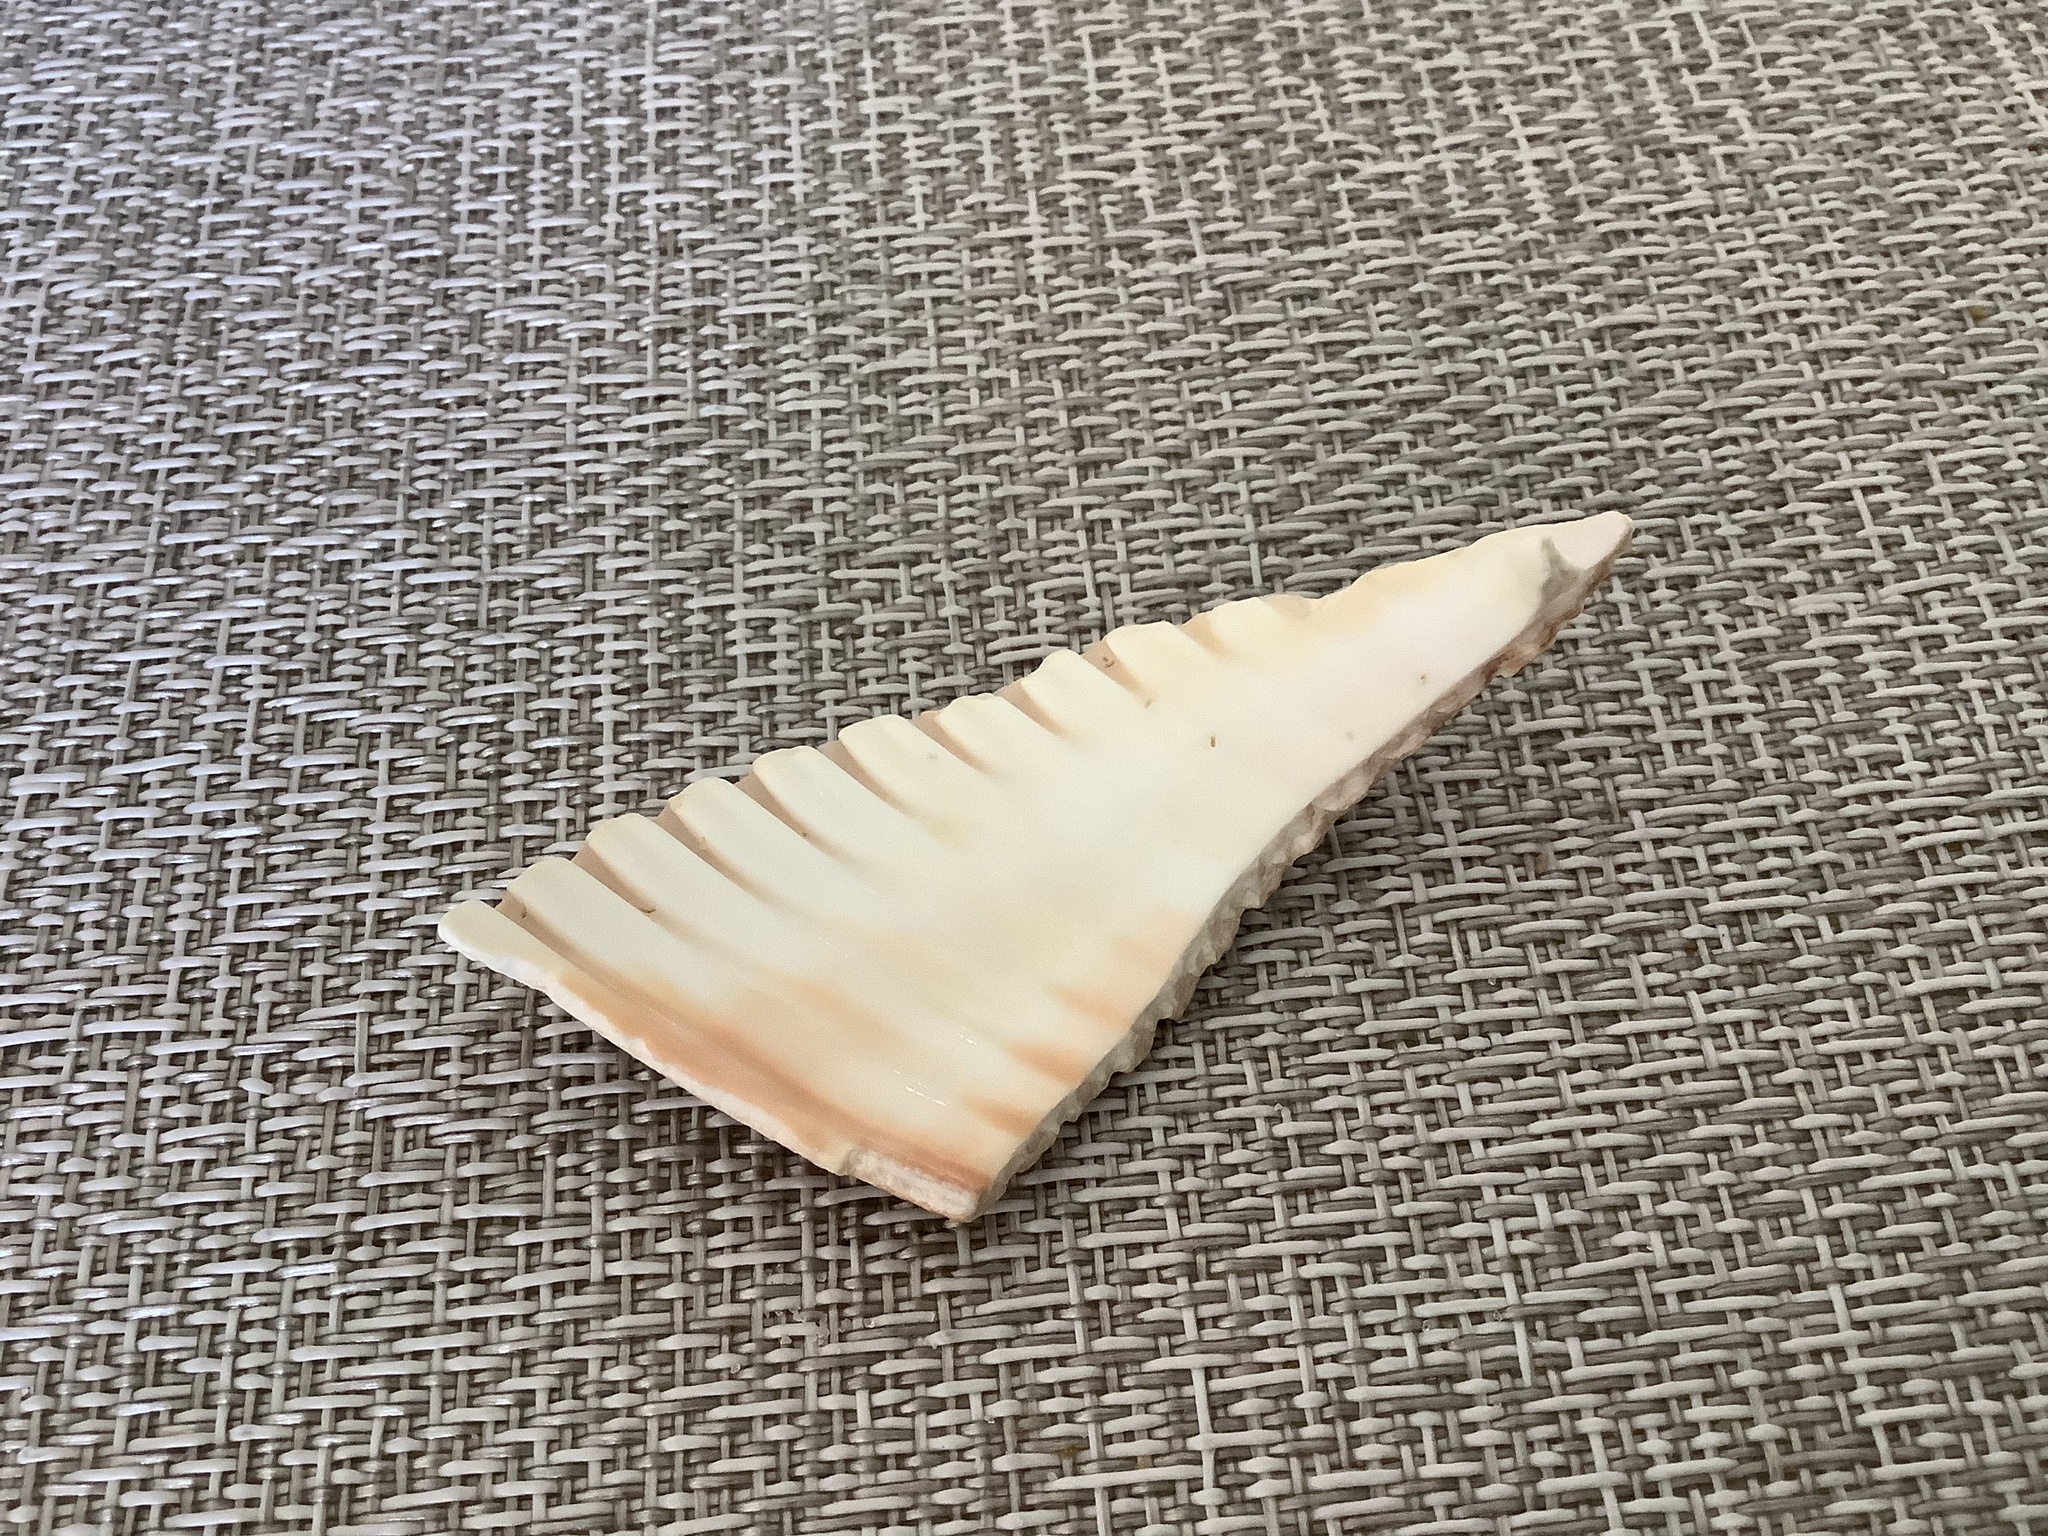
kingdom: Animalia
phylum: Mollusca
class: Bivalvia
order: Cardiida
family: Cardiidae
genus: Dinocardium
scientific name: Dinocardium robustum
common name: Atlantic giant cockle
